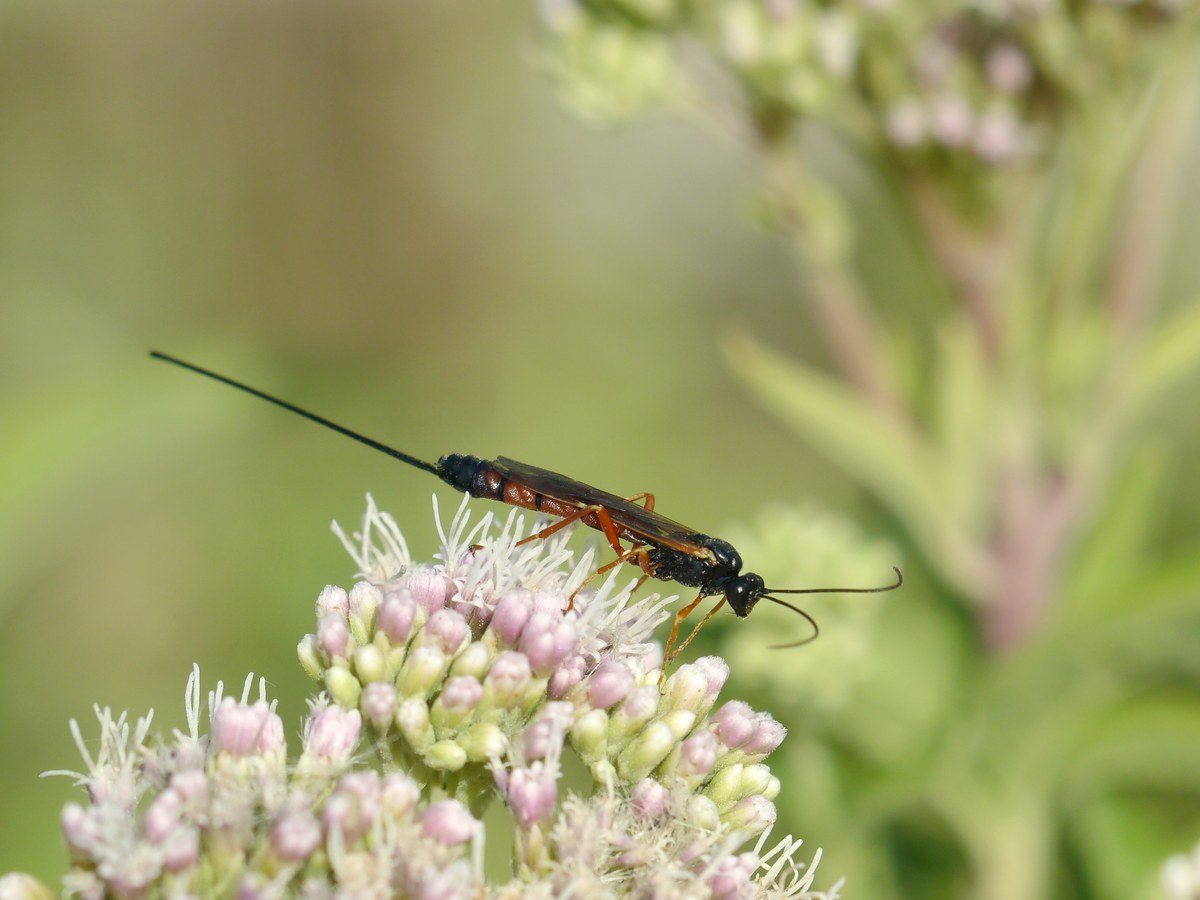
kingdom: Animalia
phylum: Arthropoda
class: Insecta
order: Hymenoptera
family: Ichneumonidae
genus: Exeristes
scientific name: Exeristes arundinis
